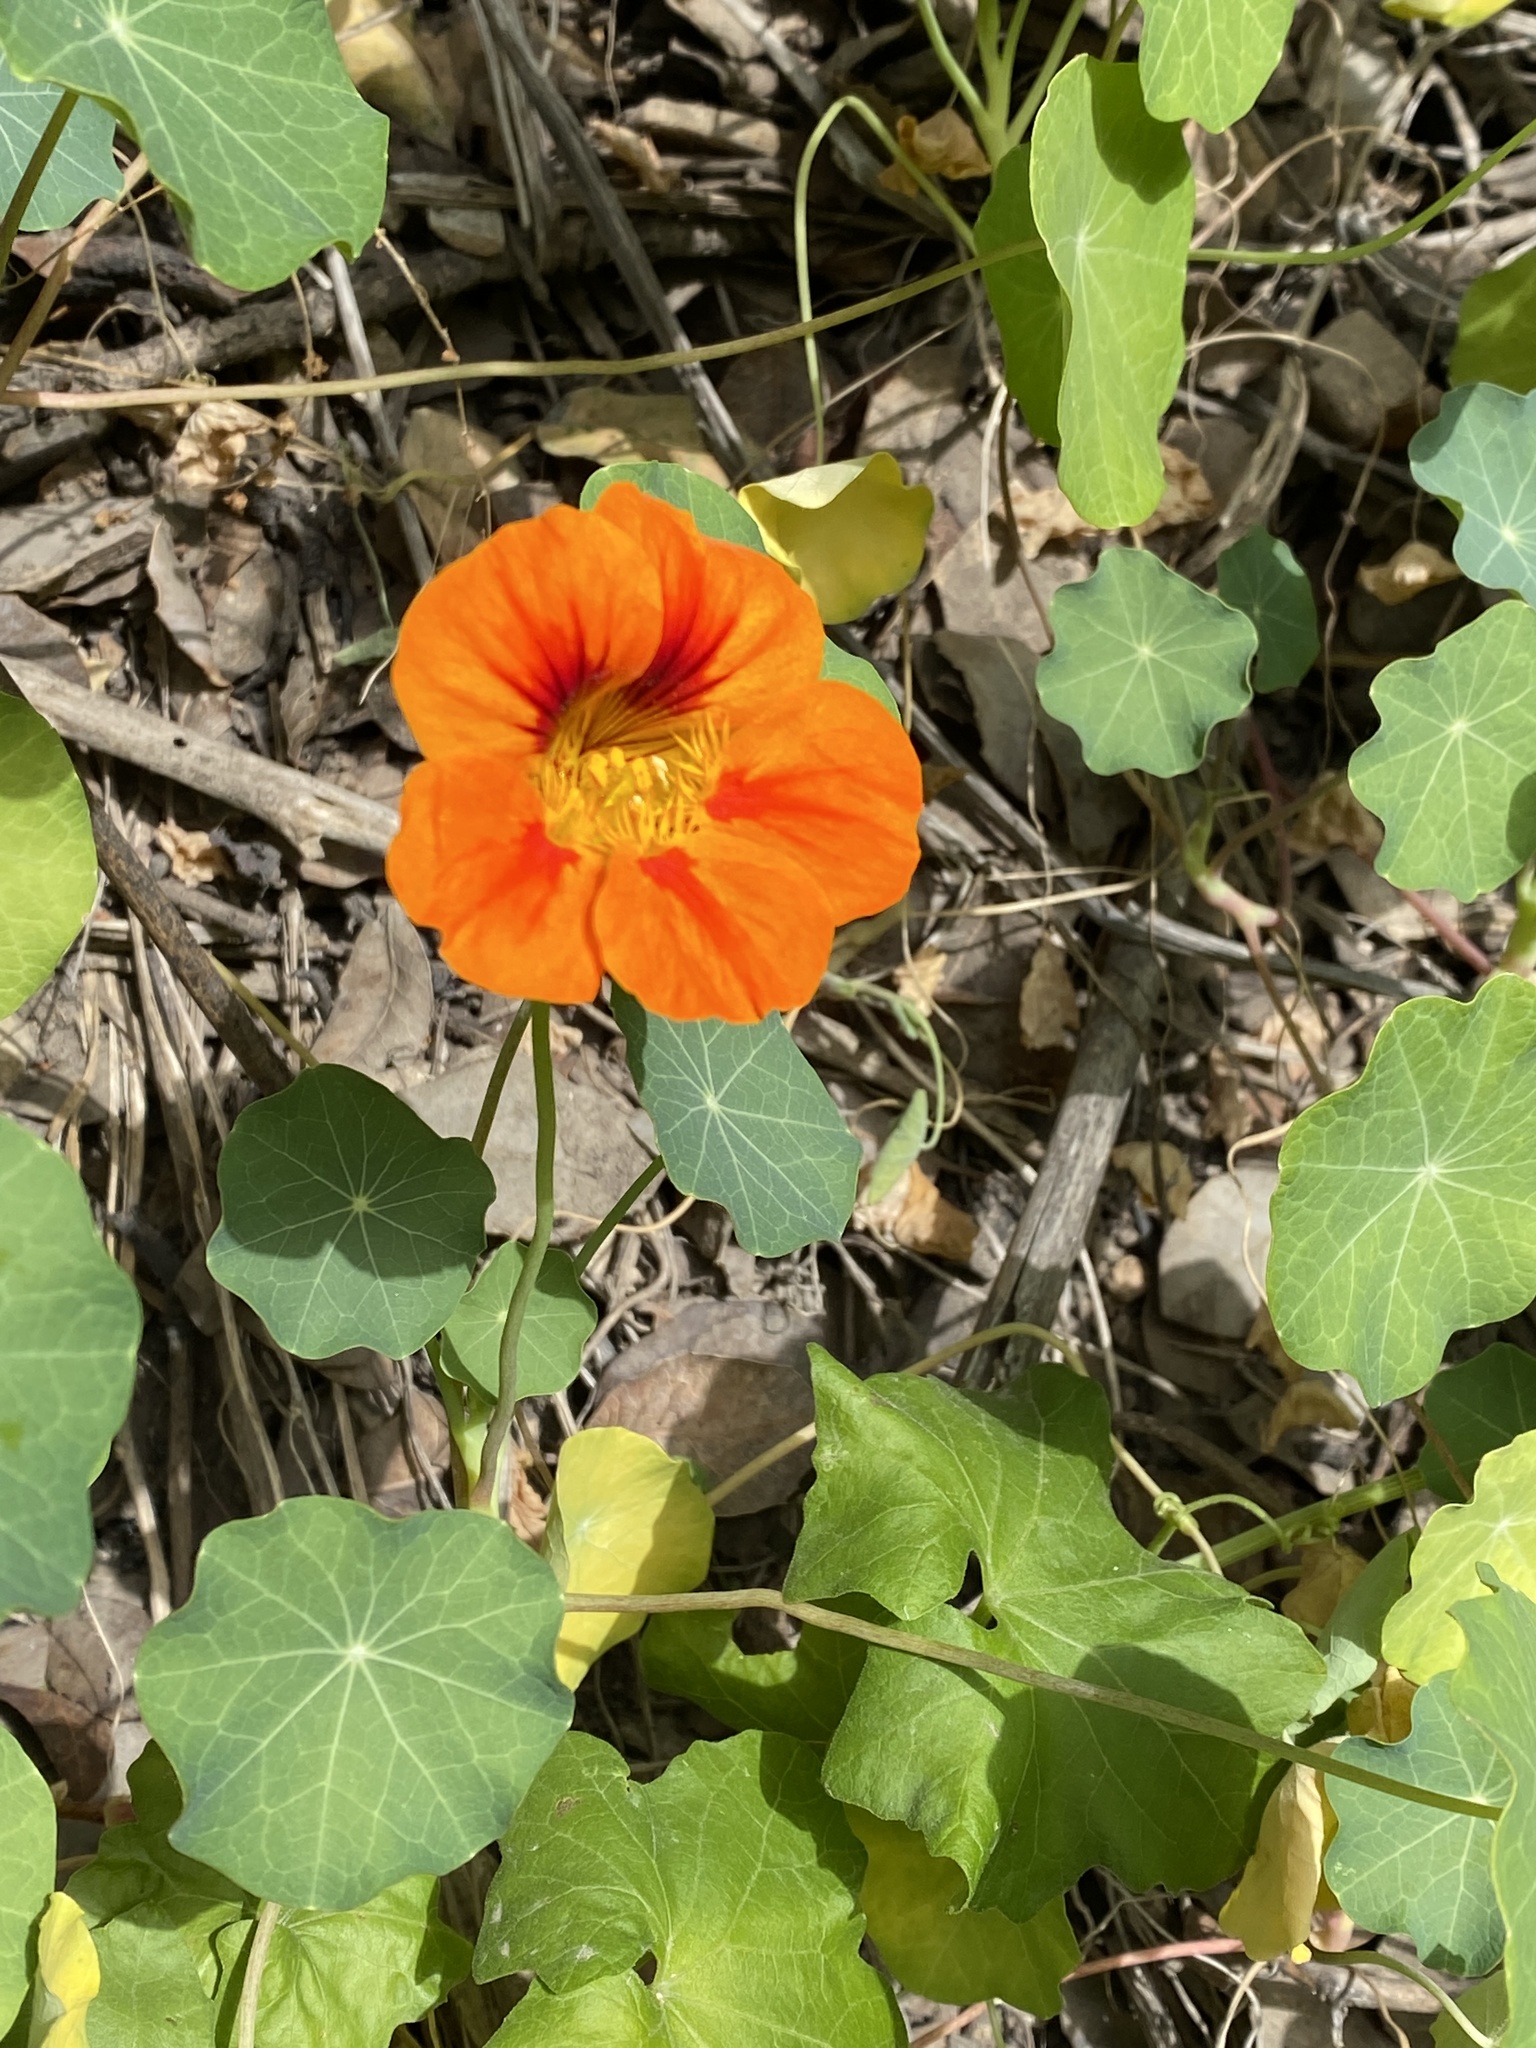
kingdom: Plantae
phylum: Tracheophyta
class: Magnoliopsida
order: Brassicales
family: Tropaeolaceae
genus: Tropaeolum
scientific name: Tropaeolum majus
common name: Nasturtium
